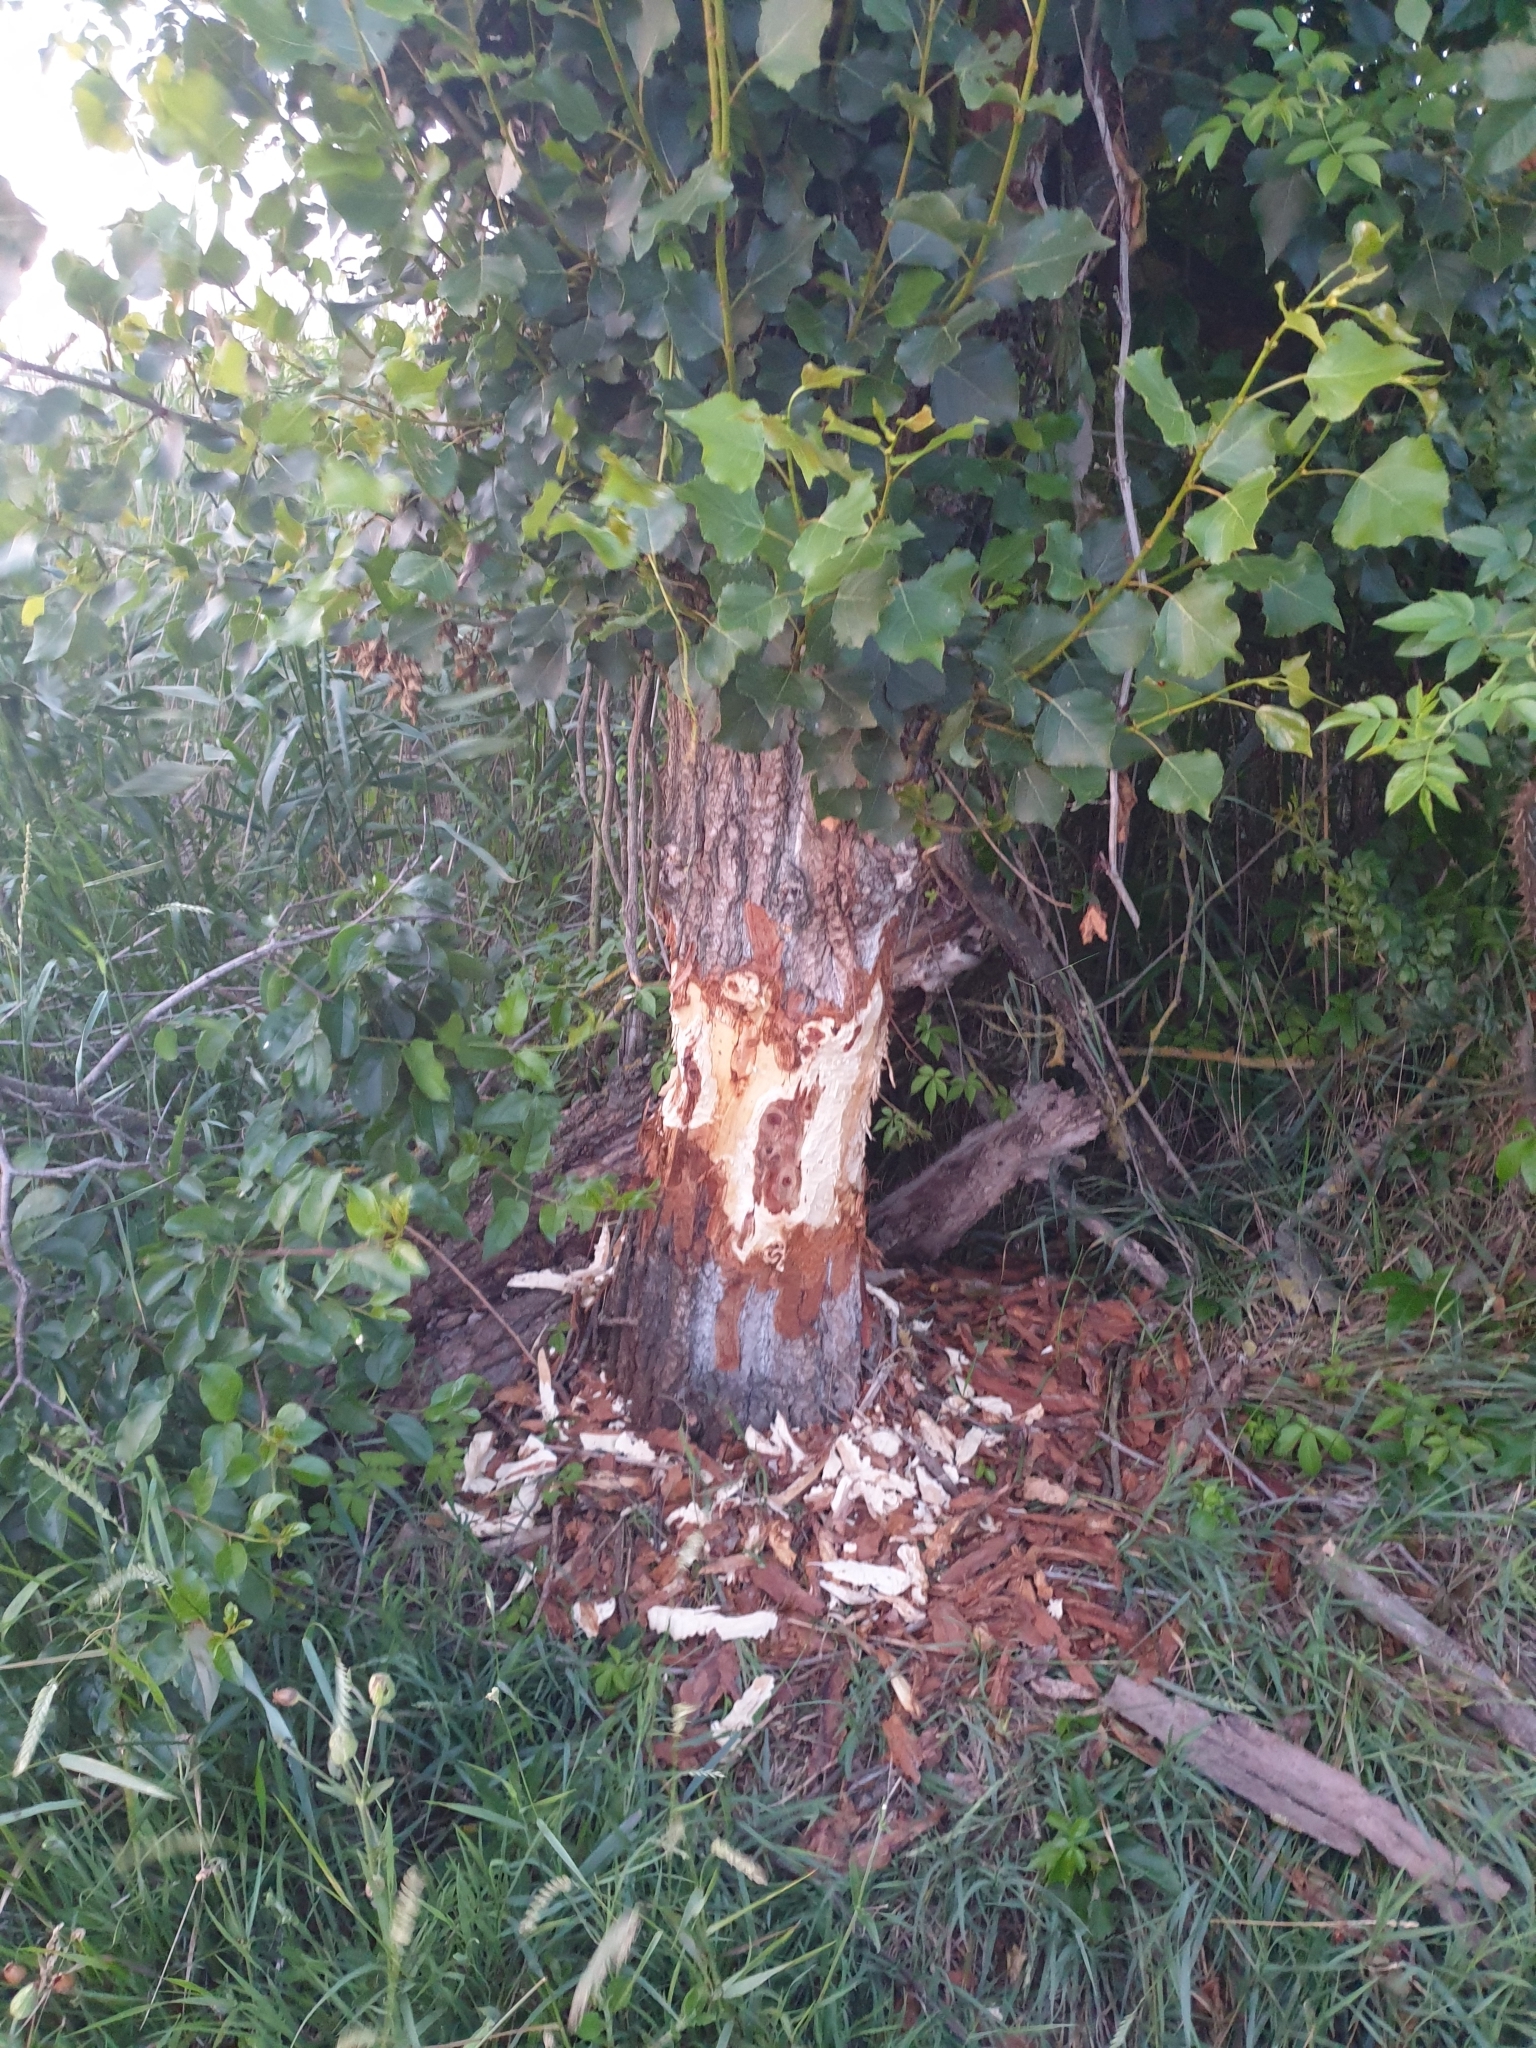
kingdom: Animalia
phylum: Chordata
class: Mammalia
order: Rodentia
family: Castoridae
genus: Castor
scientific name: Castor fiber
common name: Eurasian beaver
